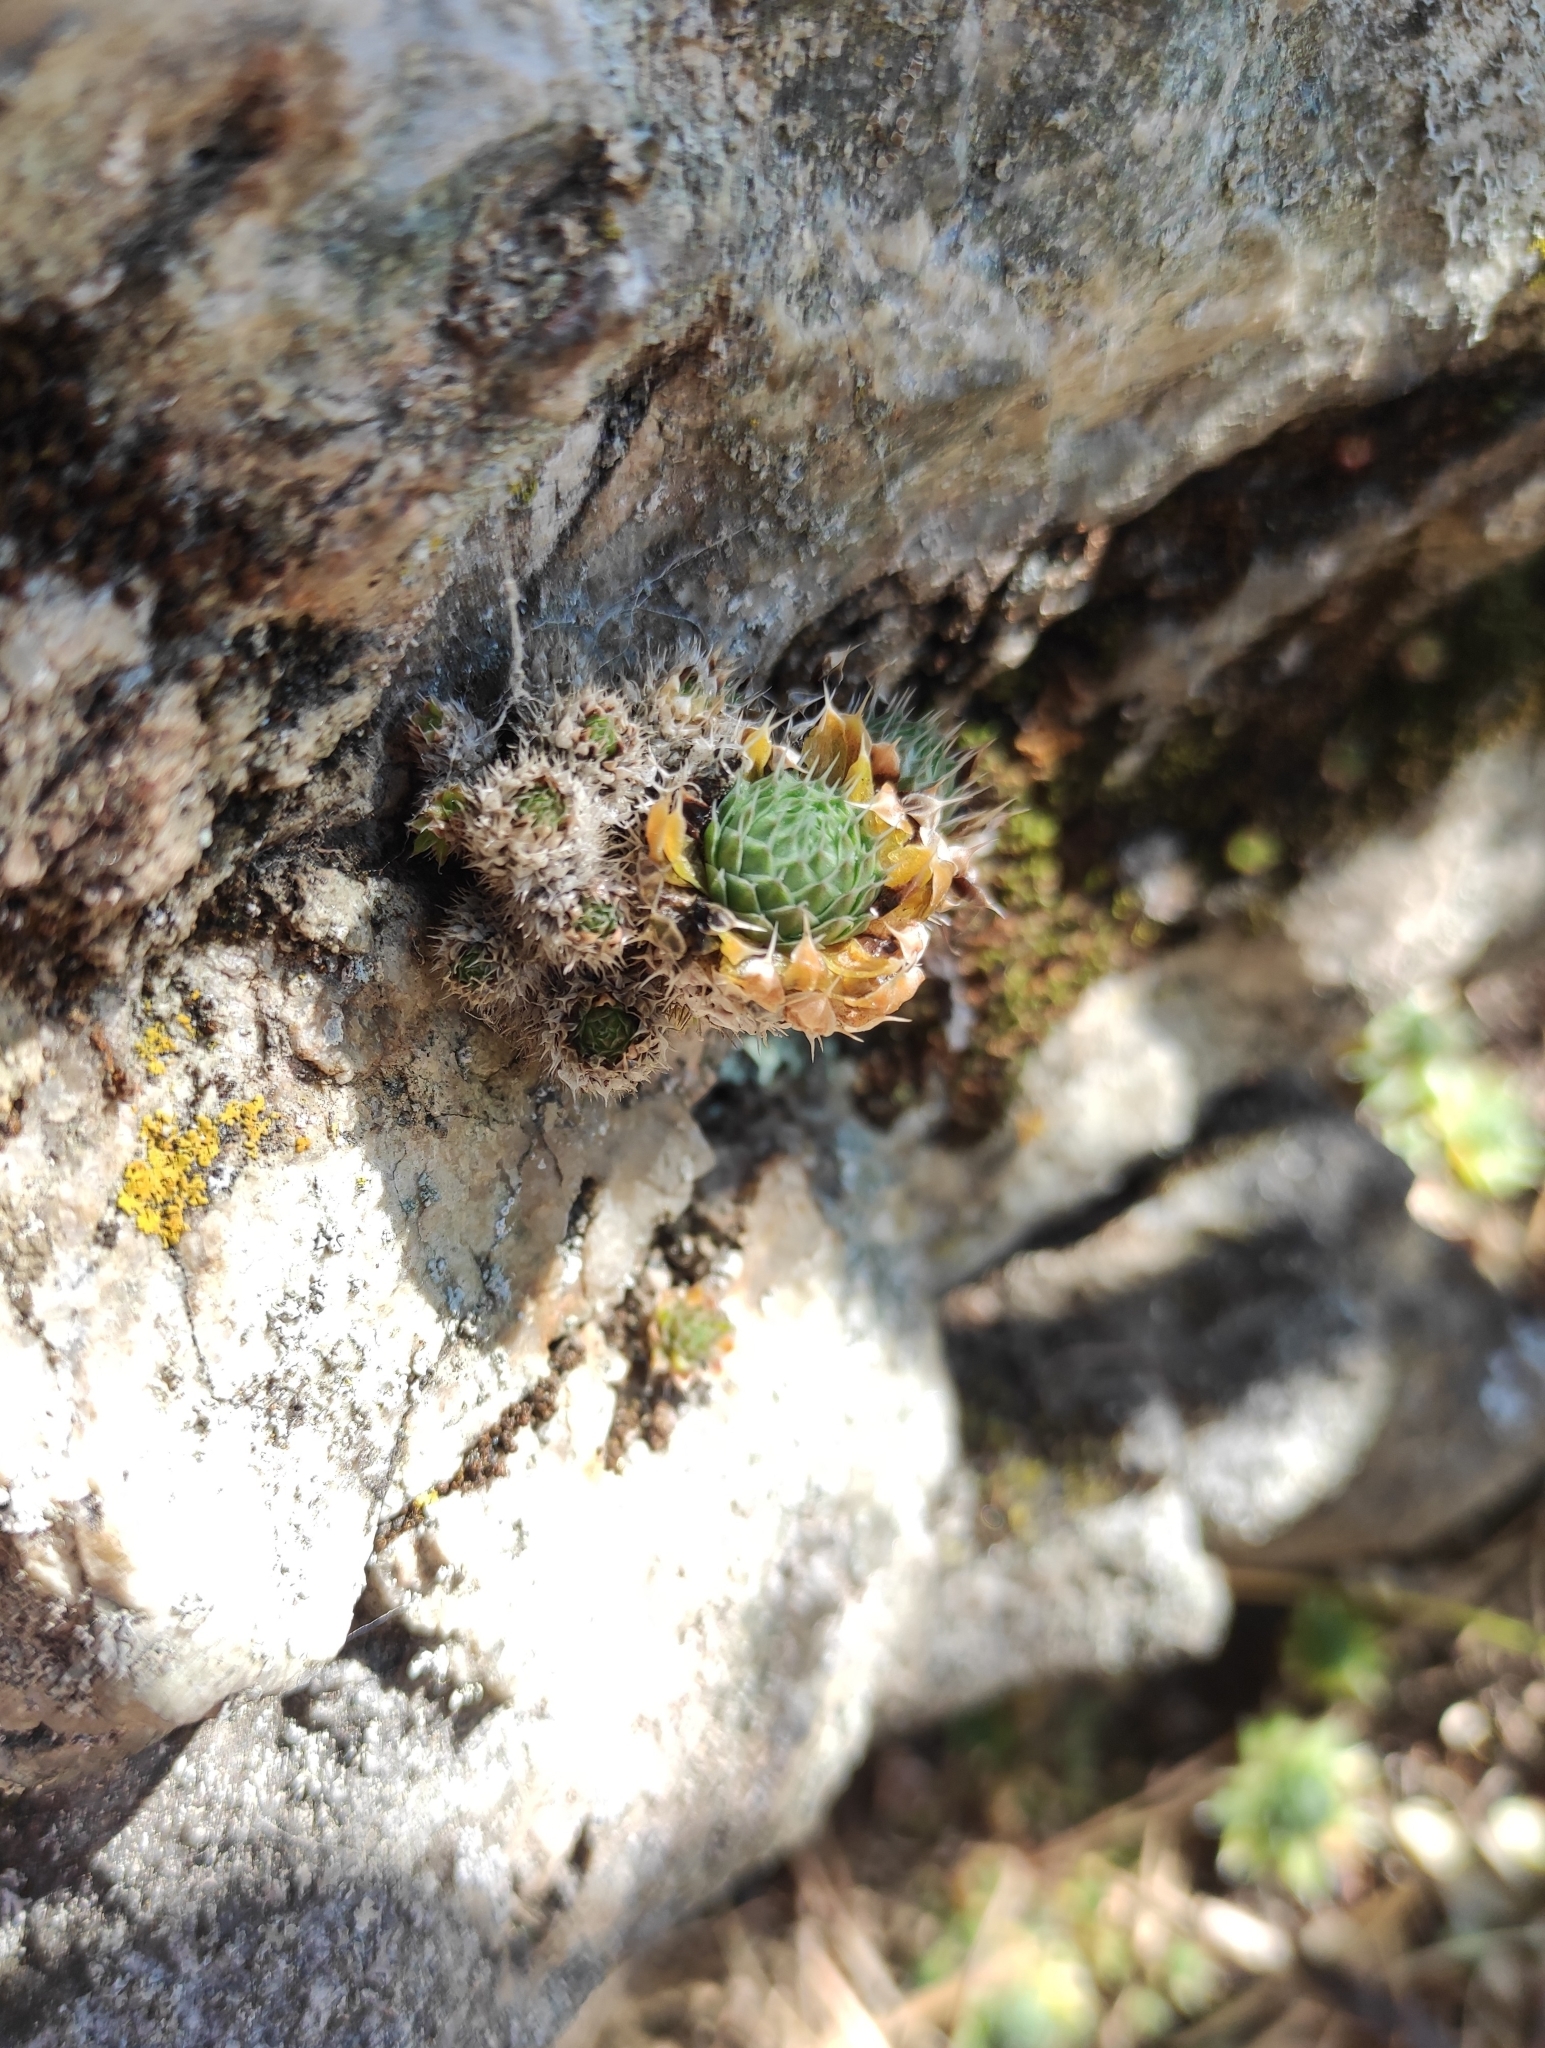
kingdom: Plantae
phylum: Tracheophyta
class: Magnoliopsida
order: Saxifragales
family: Crassulaceae
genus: Orostachys
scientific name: Orostachys spinosa
